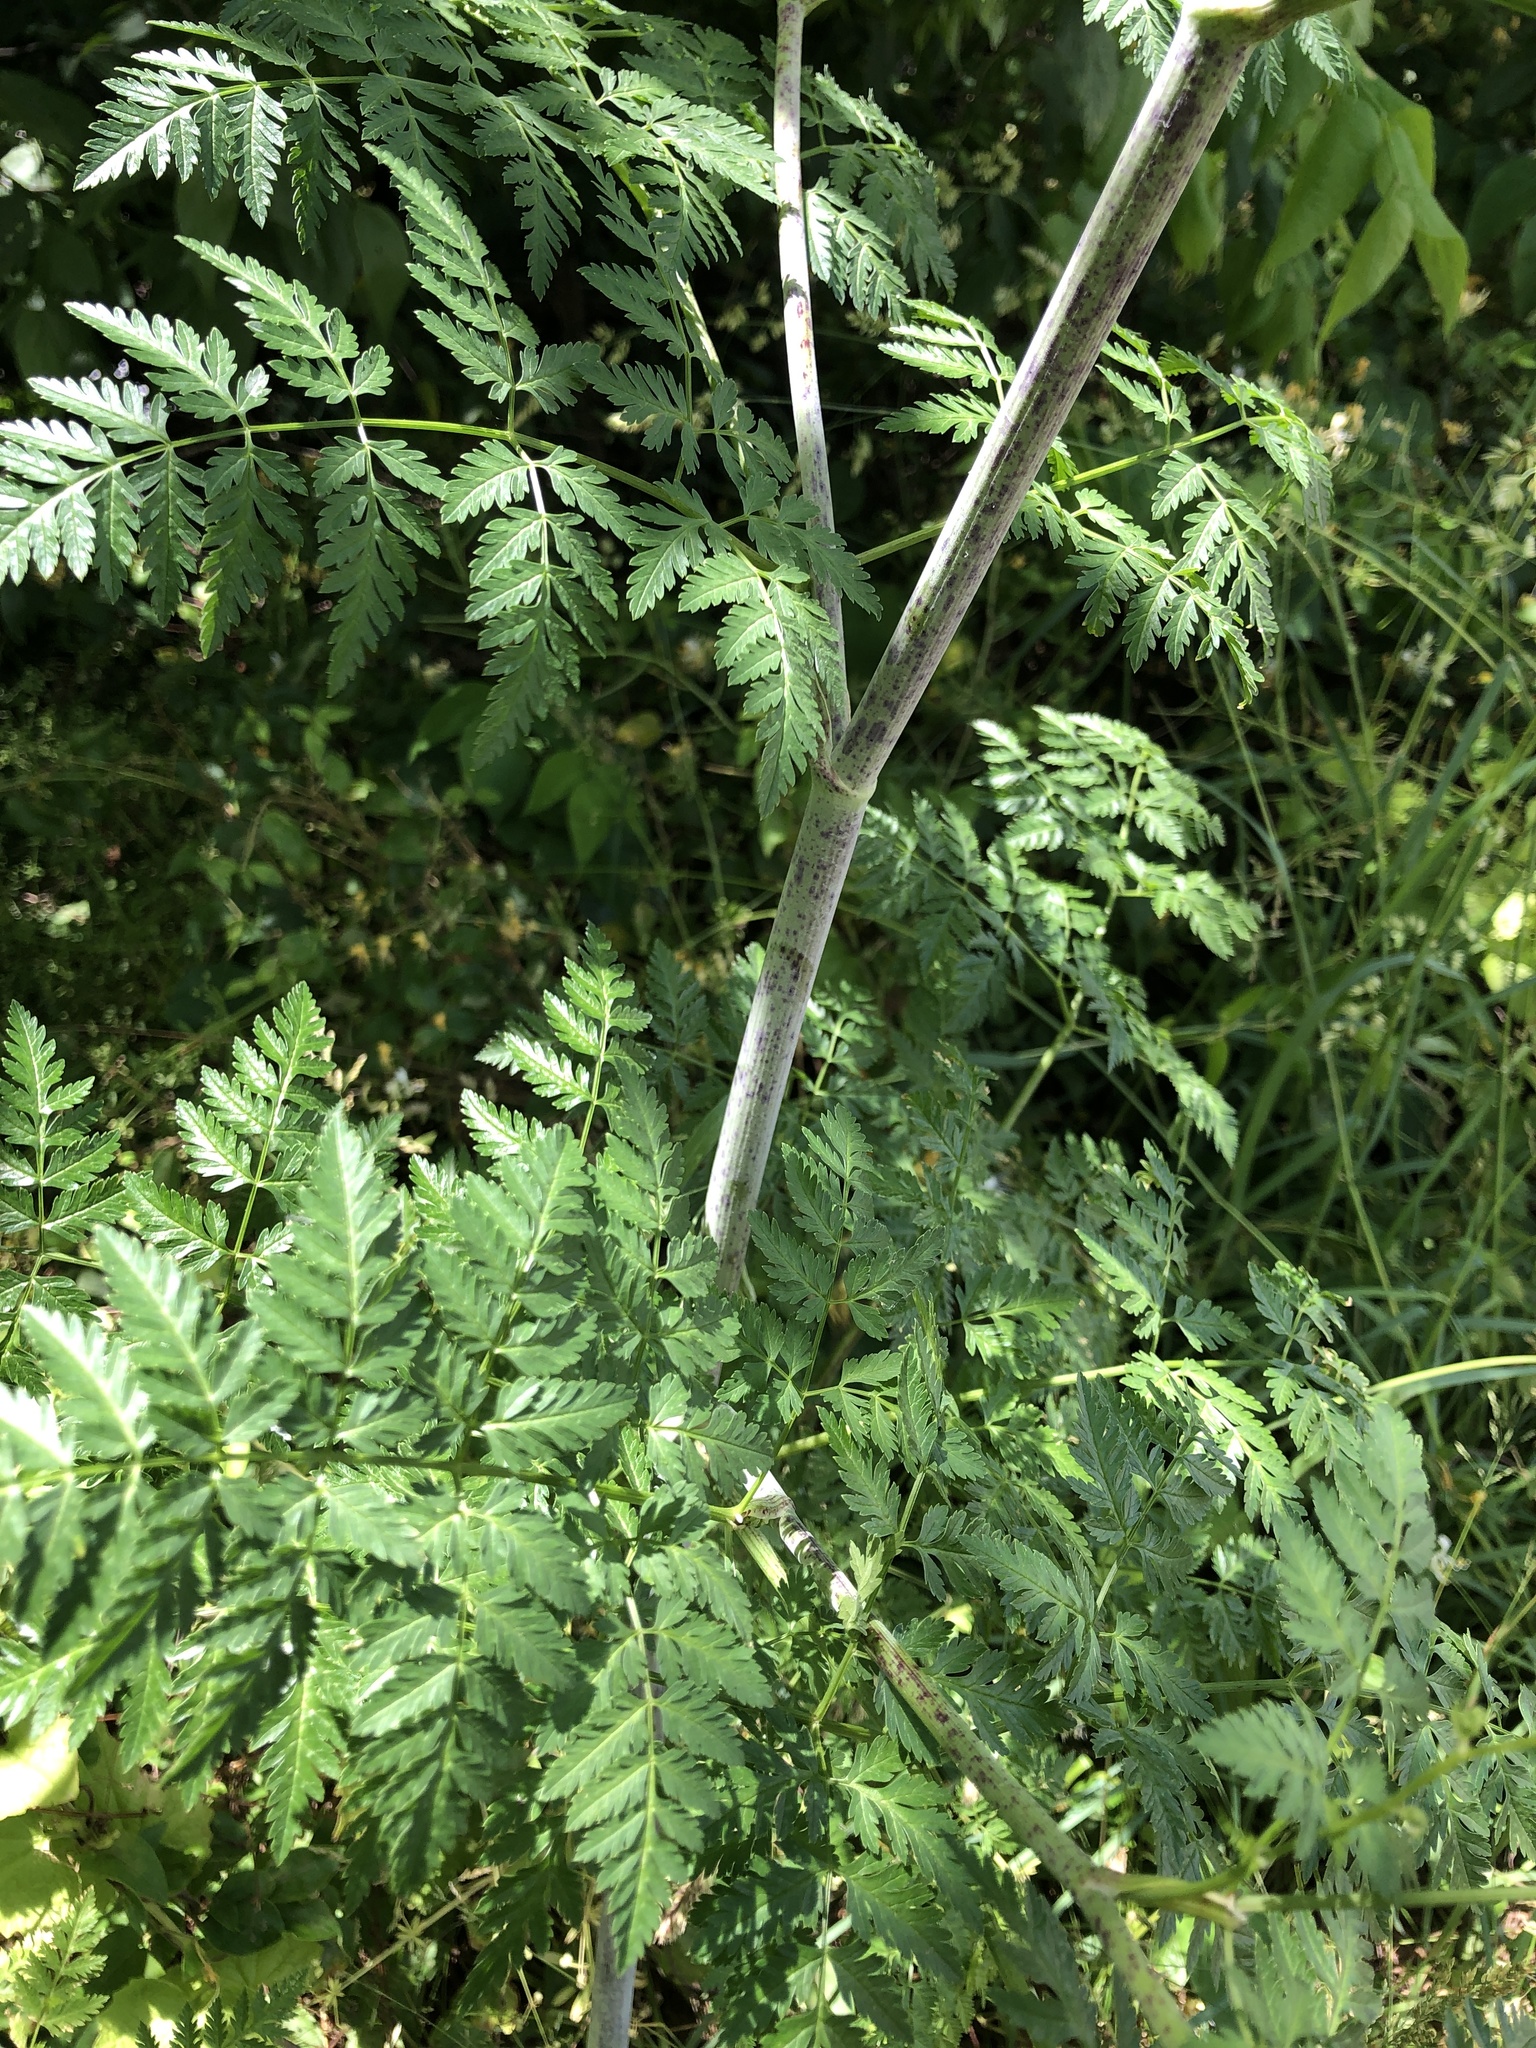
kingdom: Plantae
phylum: Tracheophyta
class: Magnoliopsida
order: Apiales
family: Apiaceae
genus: Conium
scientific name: Conium maculatum
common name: Hemlock
